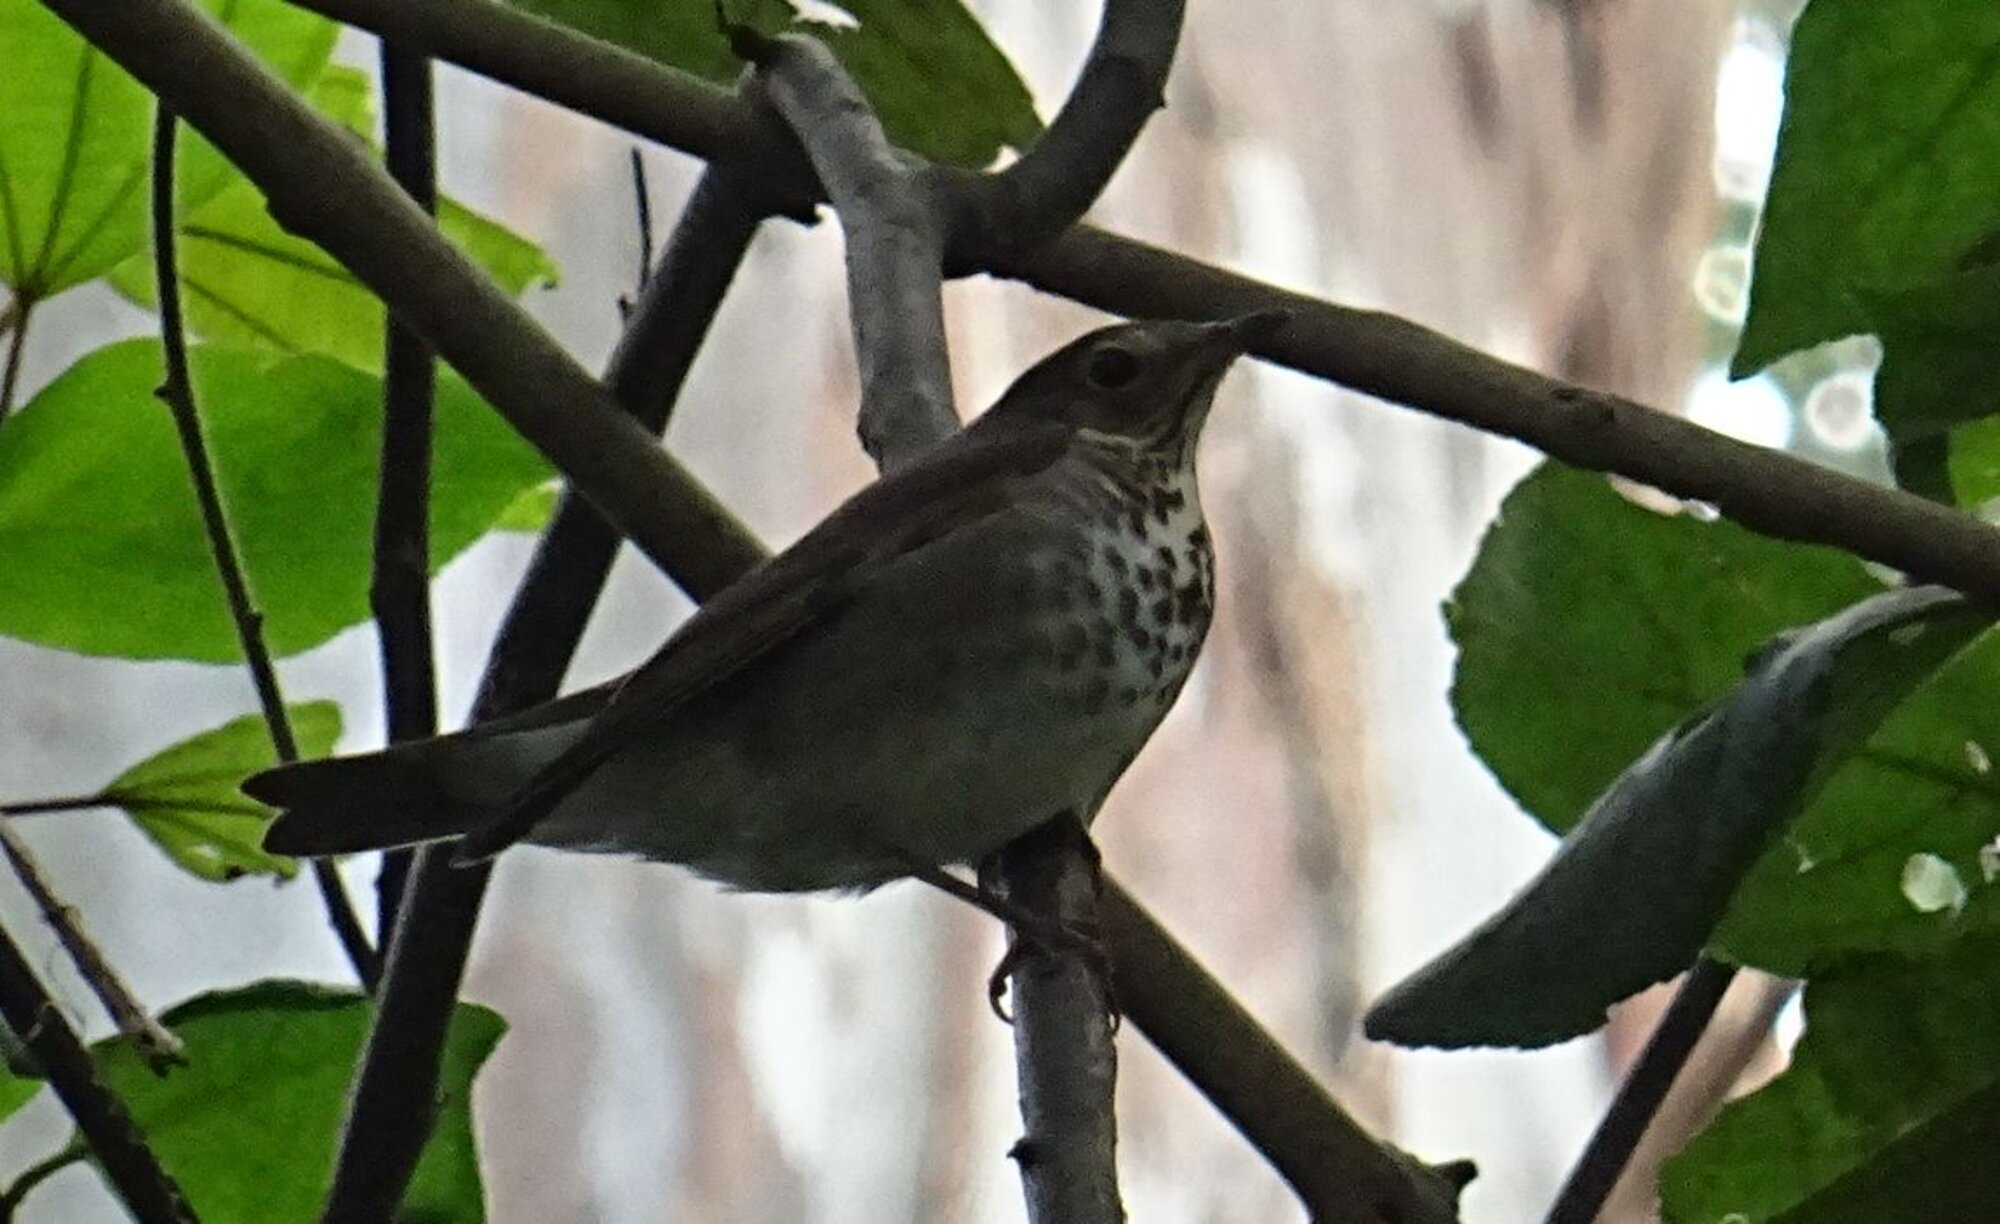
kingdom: Animalia
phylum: Chordata
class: Aves
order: Passeriformes
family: Turdidae
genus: Catharus
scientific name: Catharus ustulatus
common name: Swainson's thrush
